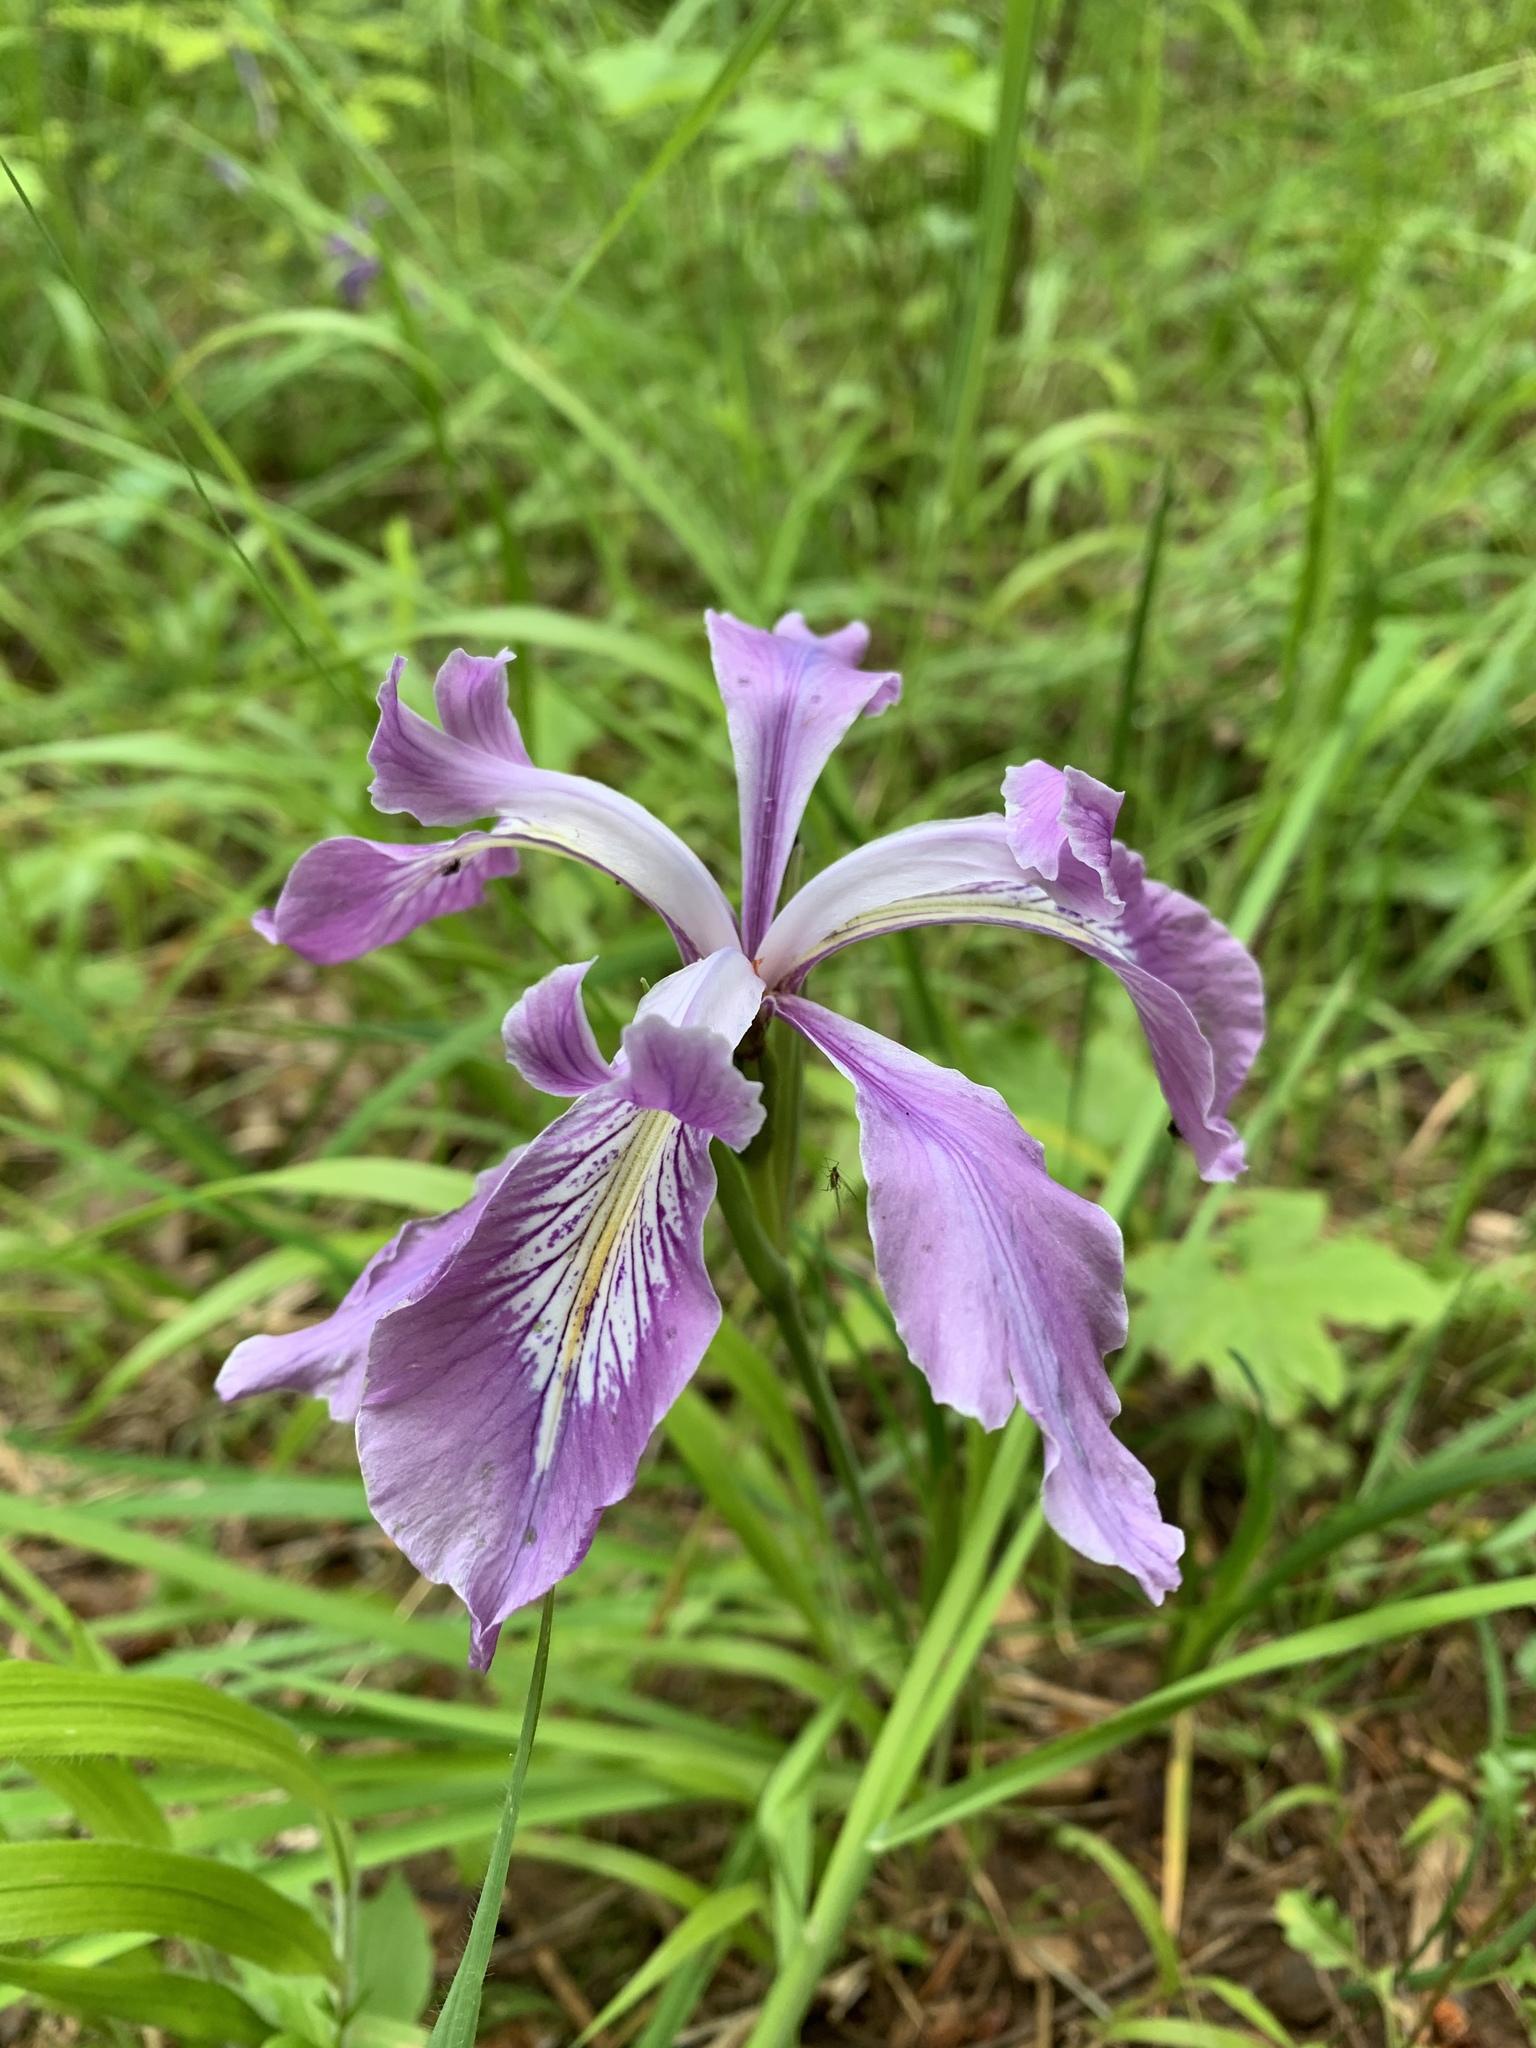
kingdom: Plantae
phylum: Tracheophyta
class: Liliopsida
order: Asparagales
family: Iridaceae
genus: Iris
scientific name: Iris tenax
